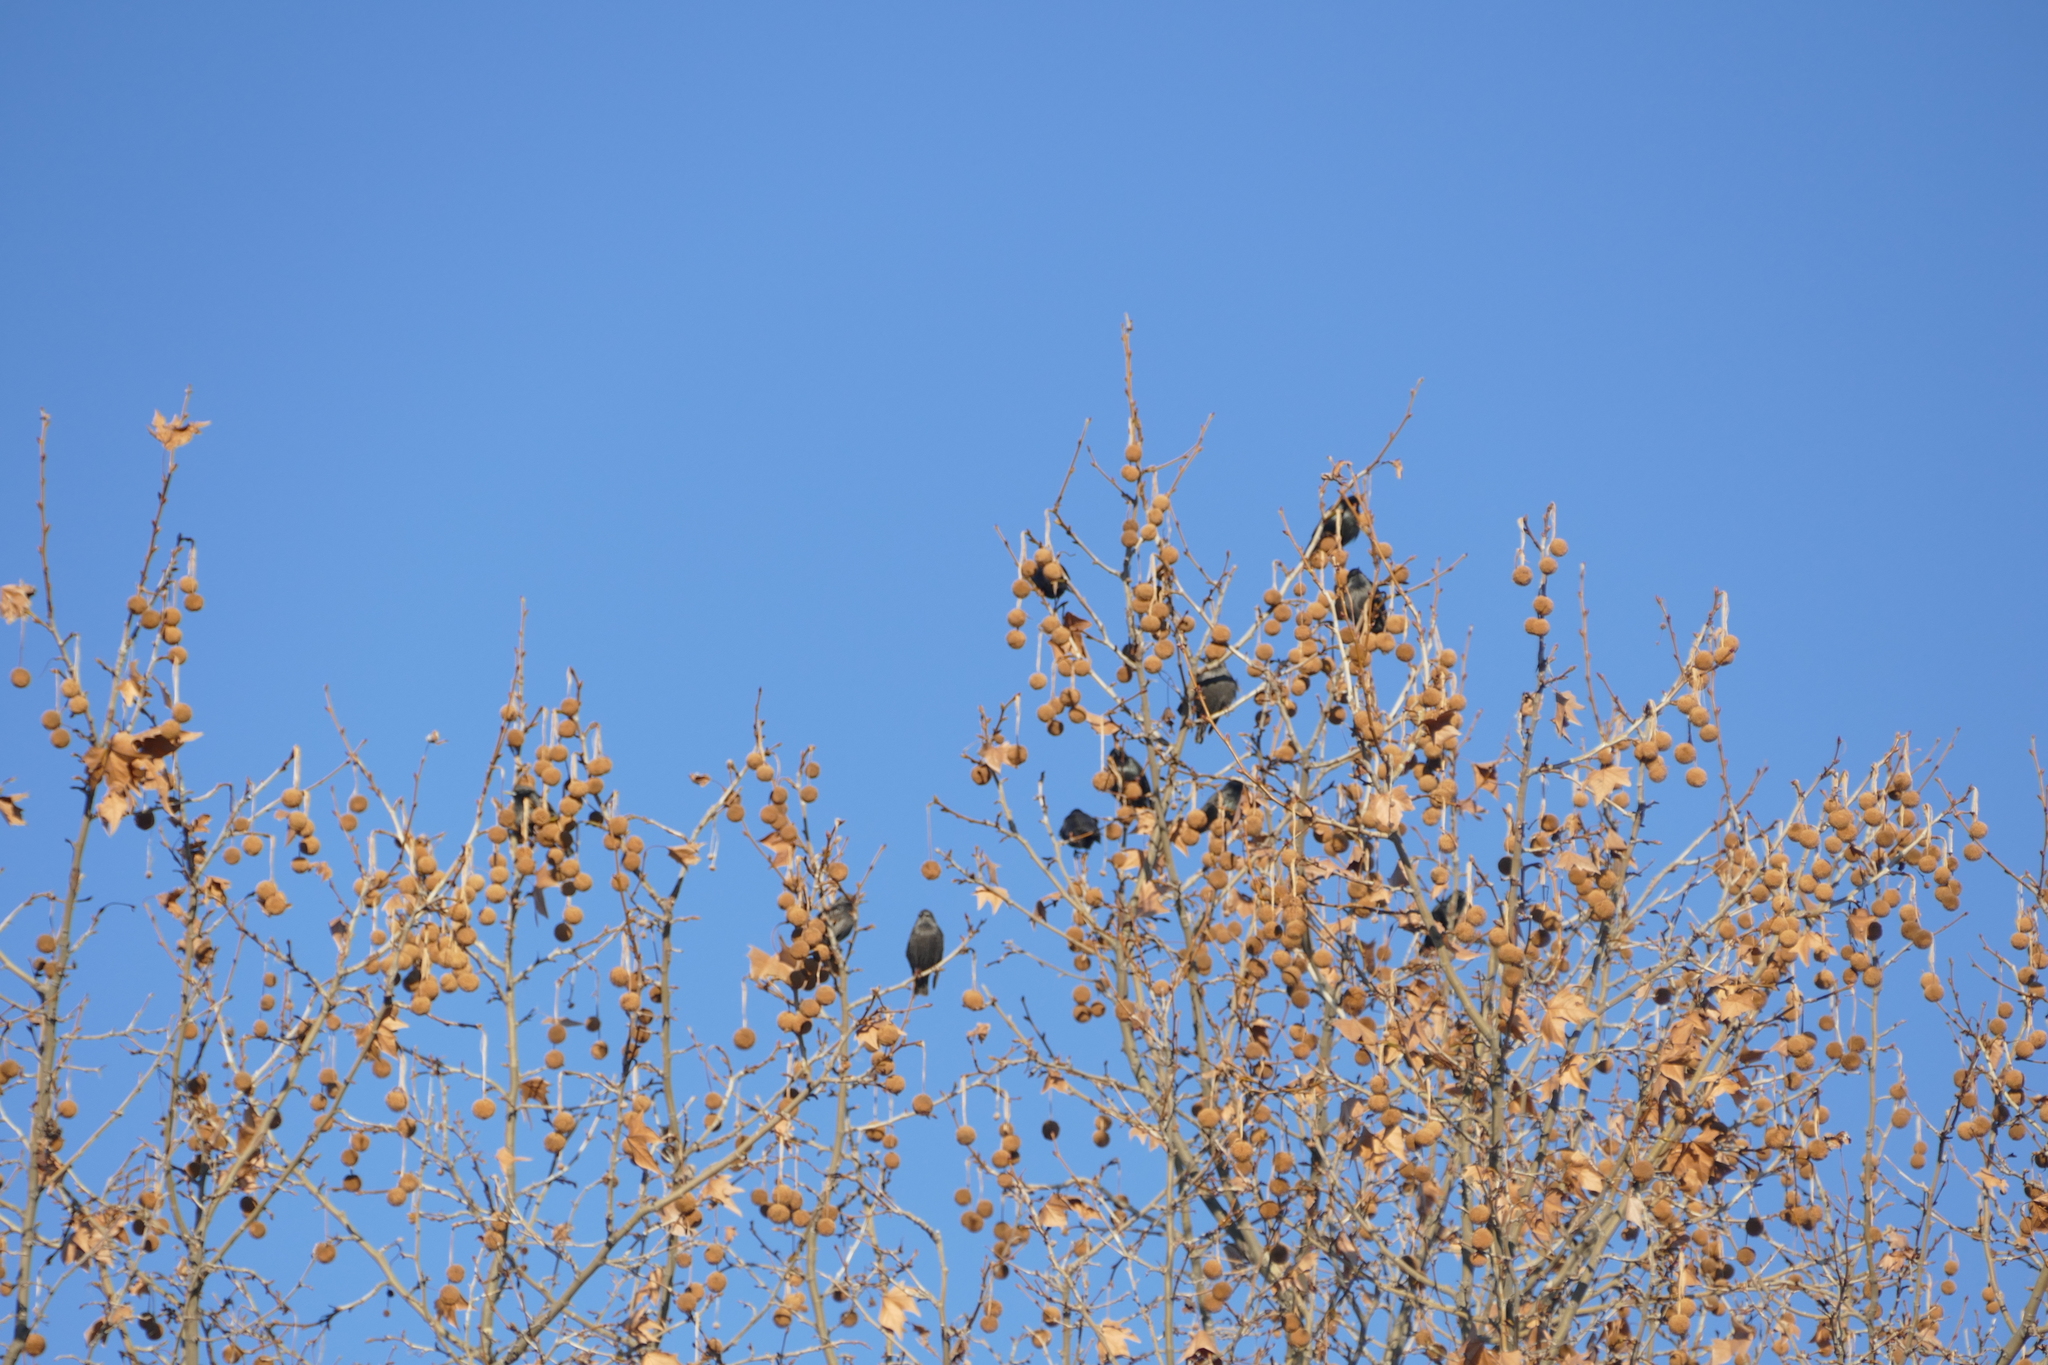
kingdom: Animalia
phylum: Chordata
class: Aves
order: Passeriformes
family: Sturnidae
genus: Sturnus
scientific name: Sturnus unicolor
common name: Spotless starling
